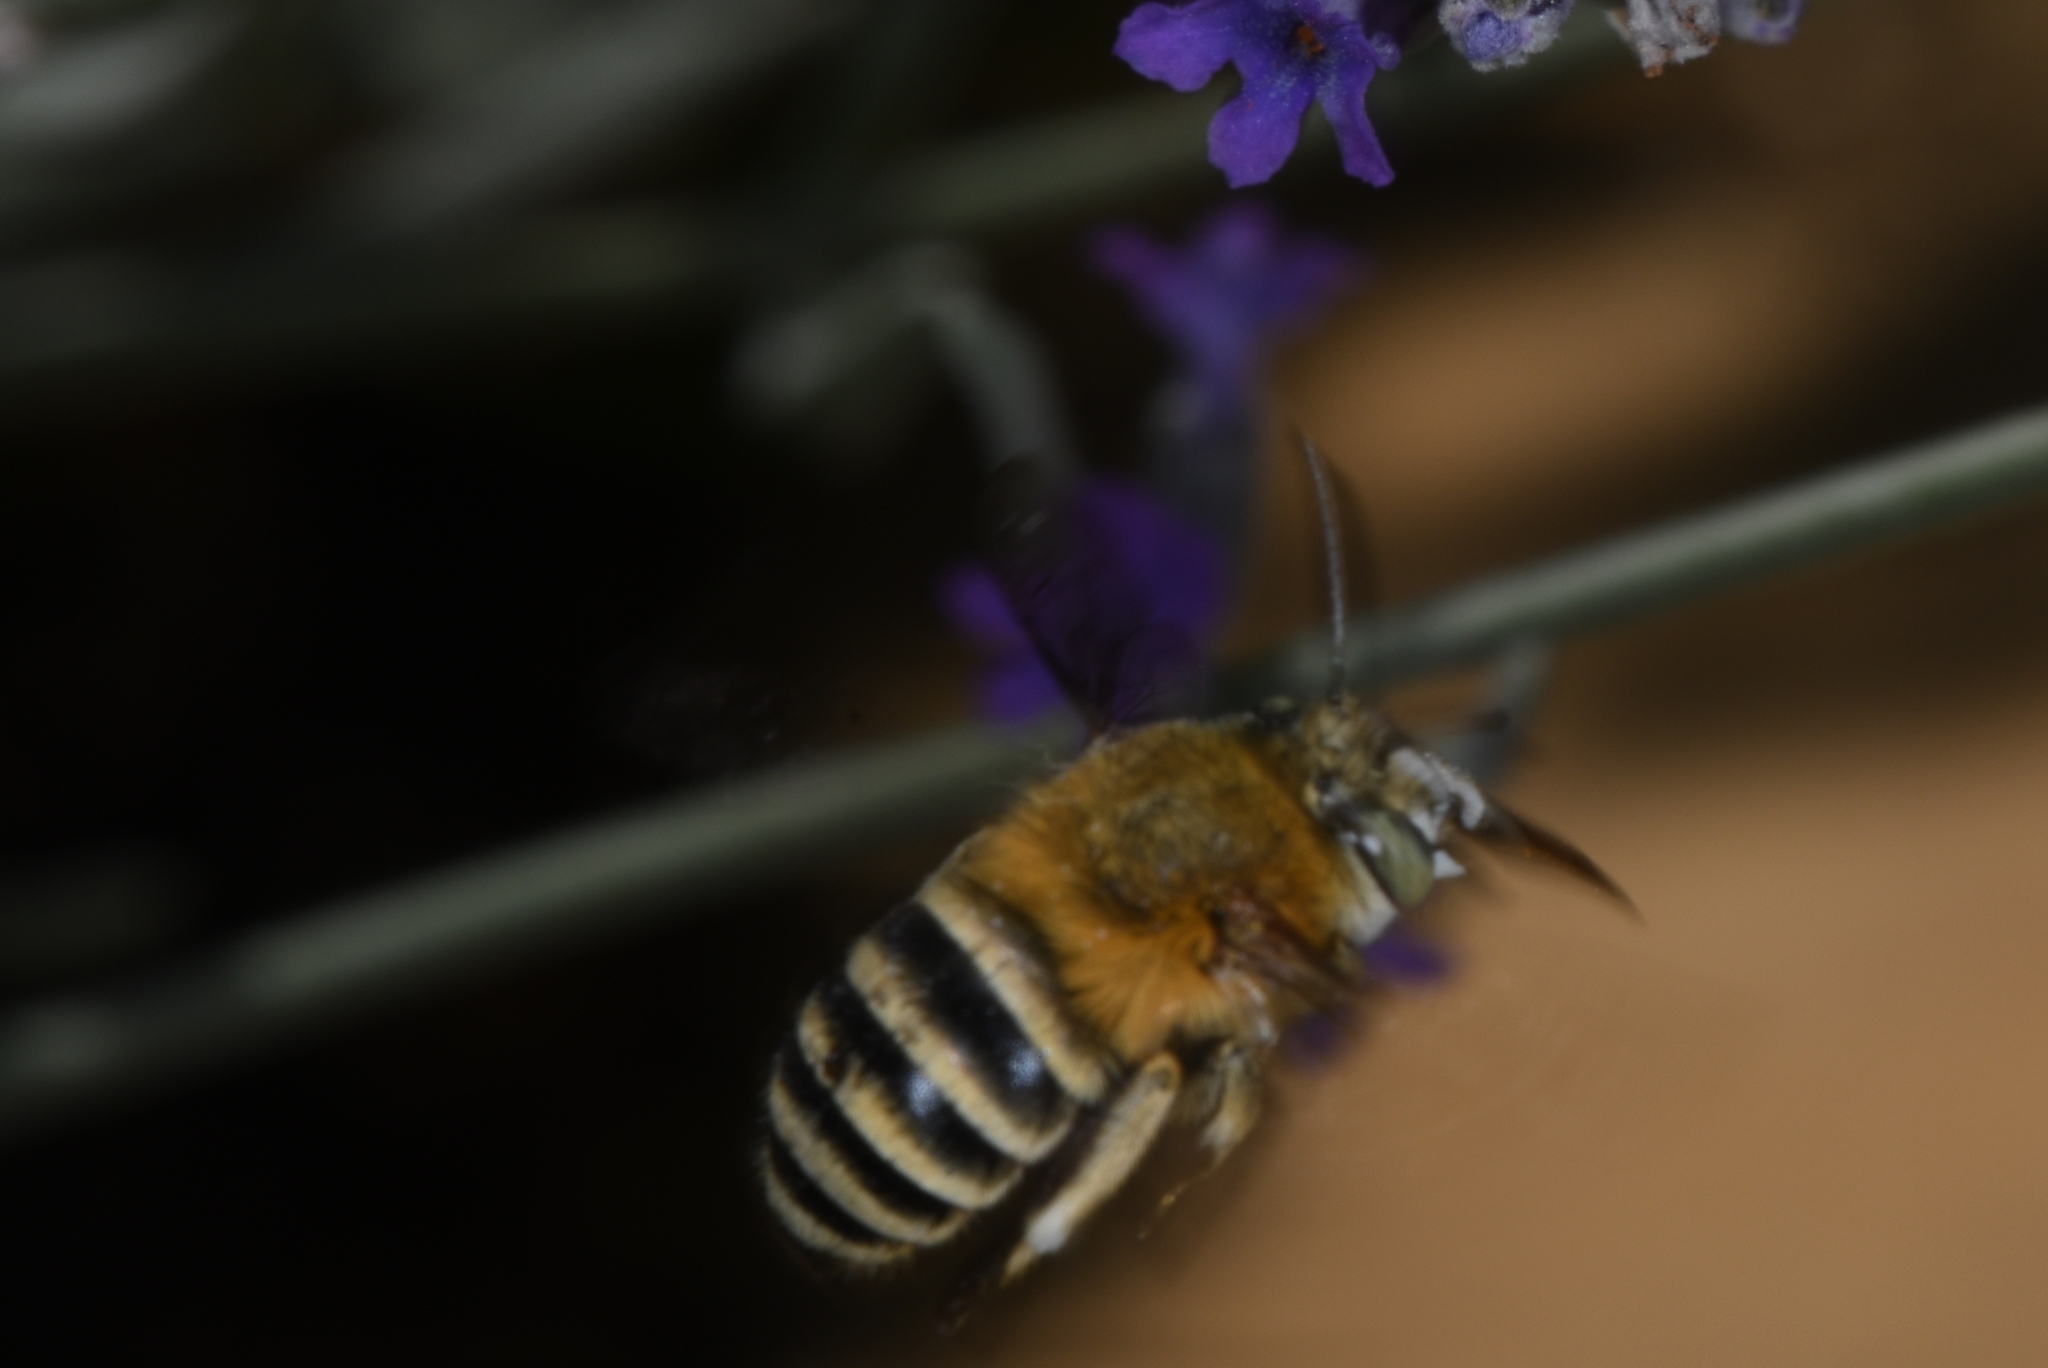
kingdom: Animalia
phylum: Arthropoda
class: Insecta
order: Hymenoptera
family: Apidae
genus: Amegilla
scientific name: Amegilla garrula
